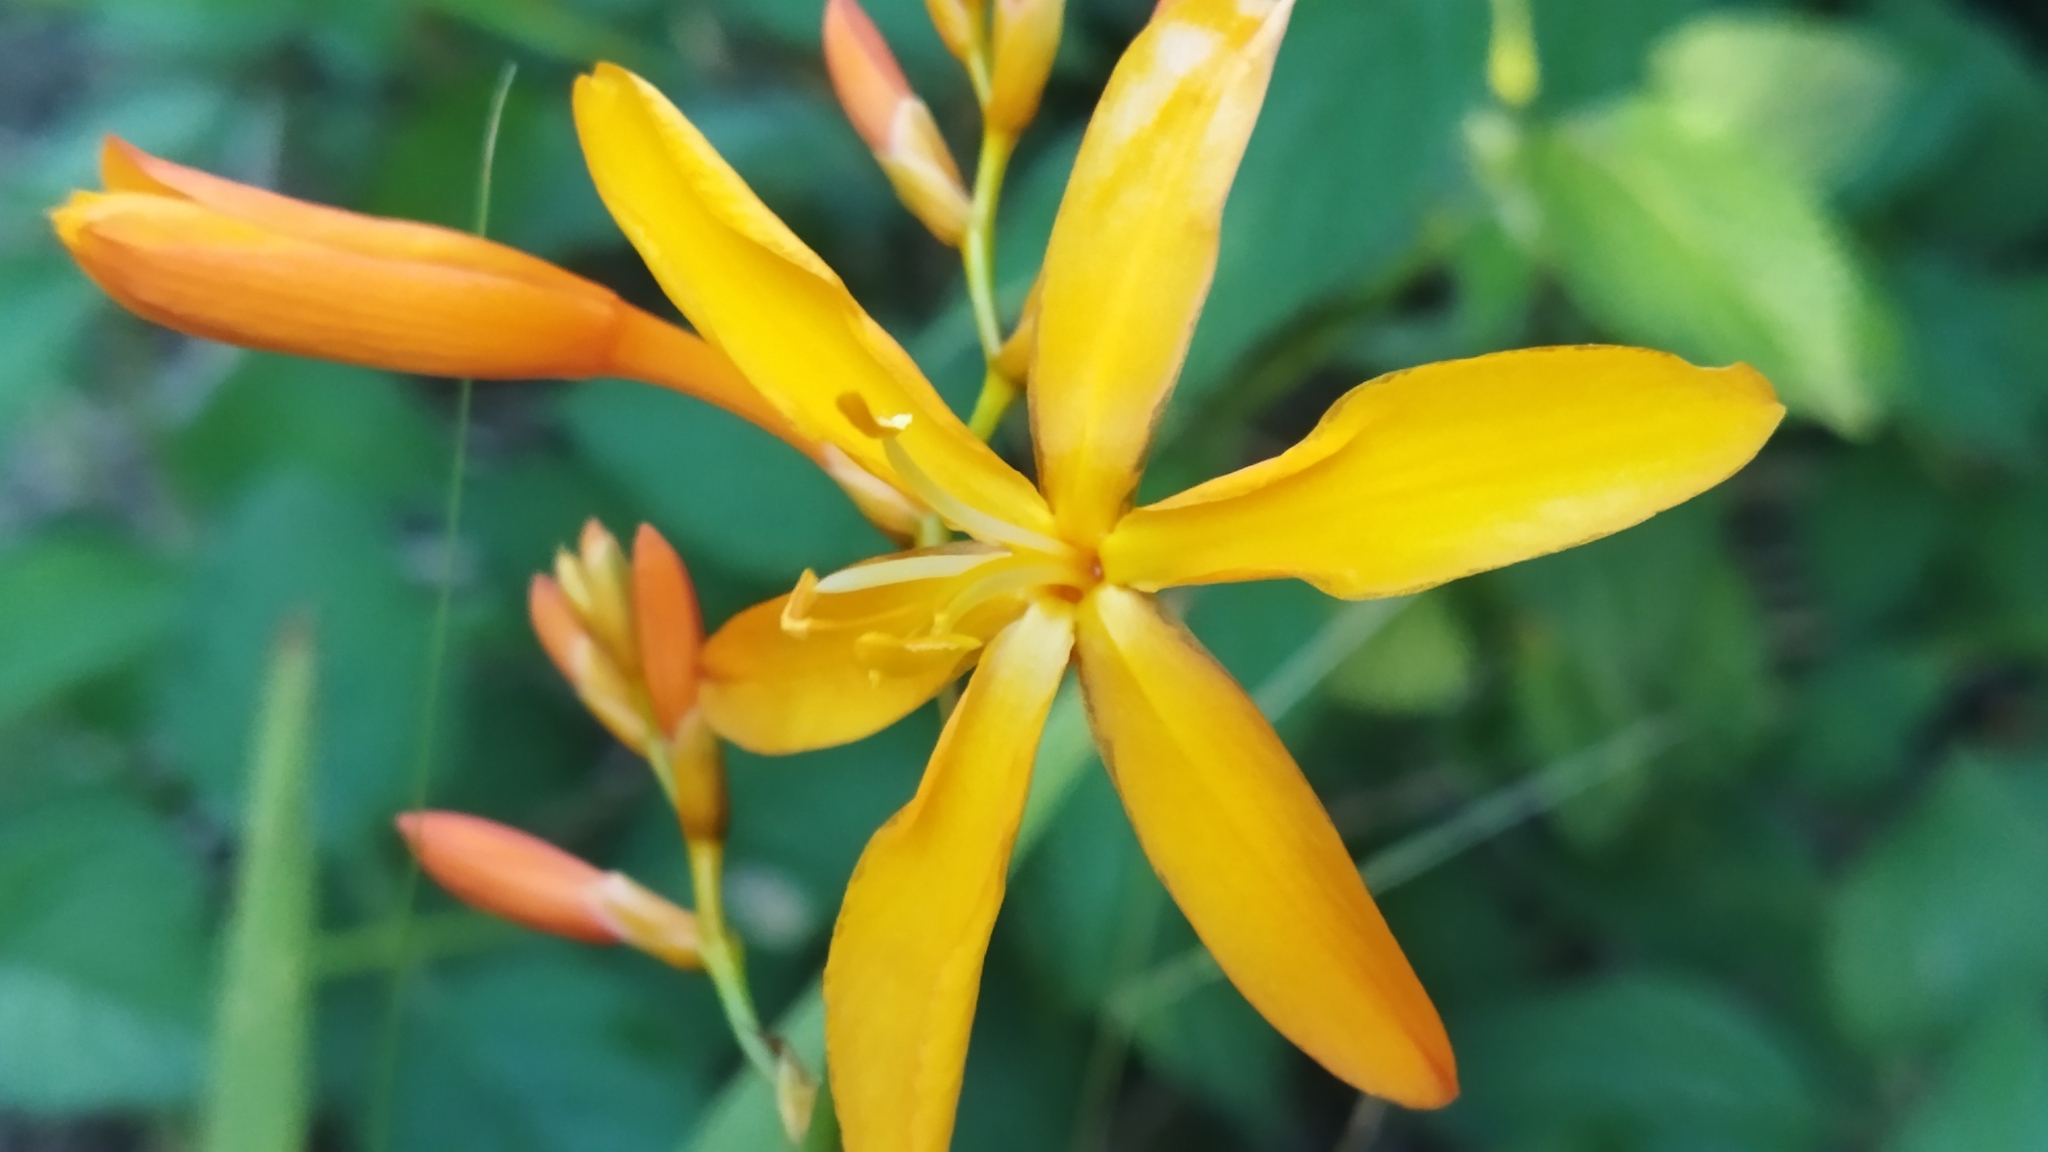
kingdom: Plantae
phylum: Tracheophyta
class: Liliopsida
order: Asparagales
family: Iridaceae
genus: Crocosmia
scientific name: Crocosmia aurea
